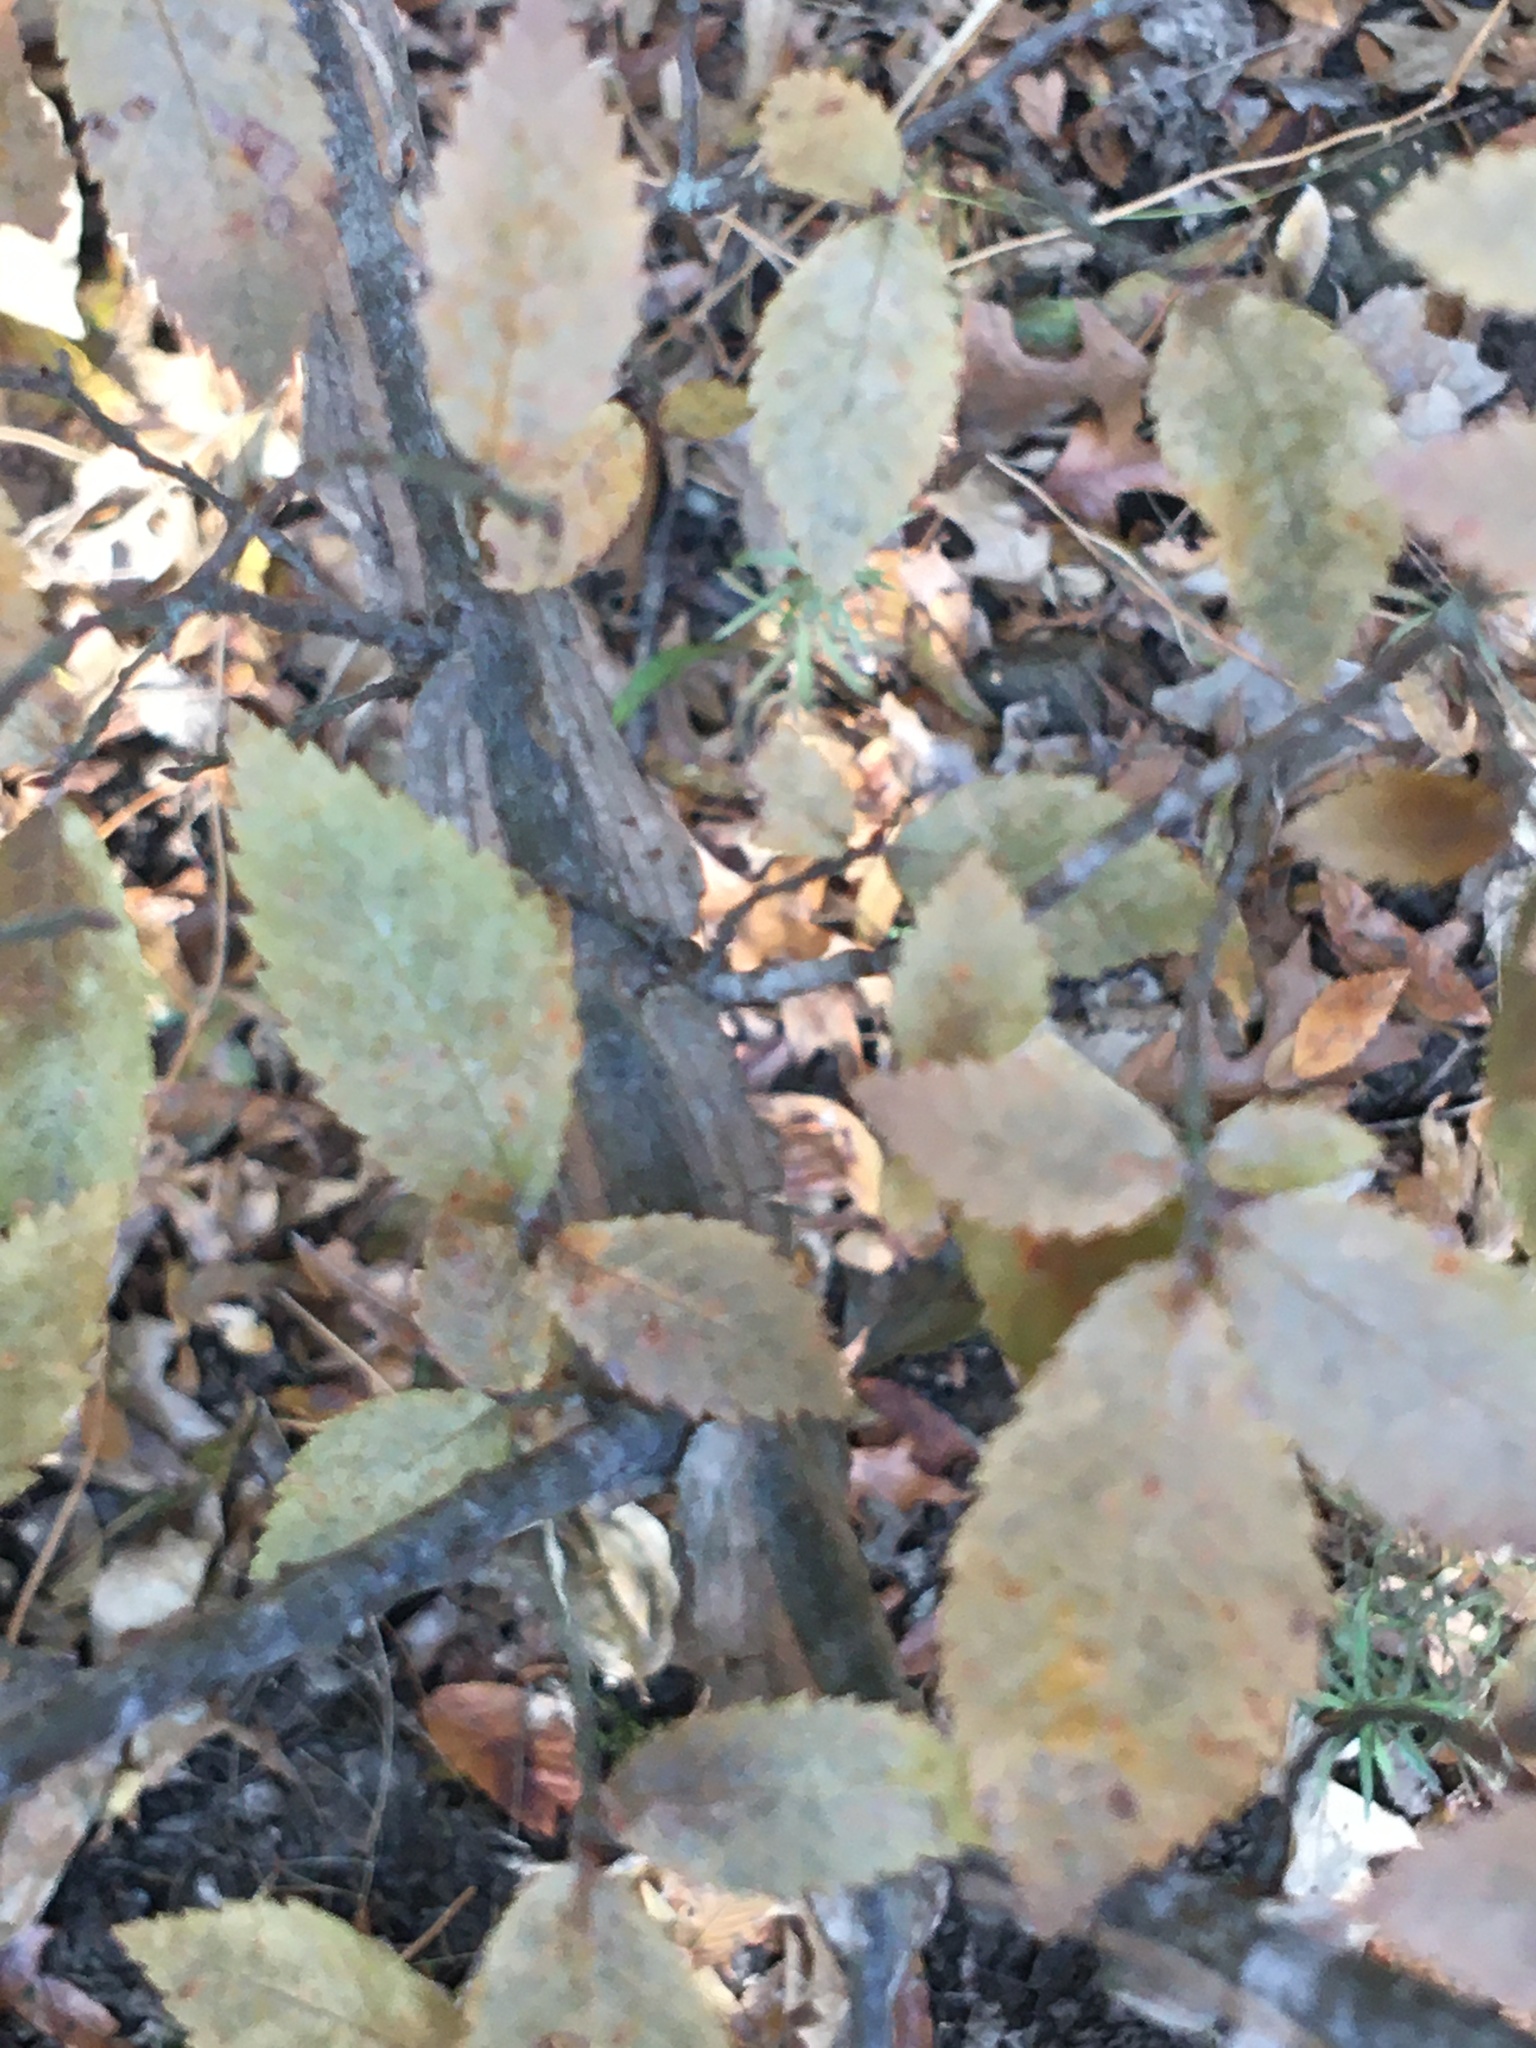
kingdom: Plantae
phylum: Tracheophyta
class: Magnoliopsida
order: Rosales
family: Ulmaceae
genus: Ulmus
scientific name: Ulmus alata
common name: Winged elm
